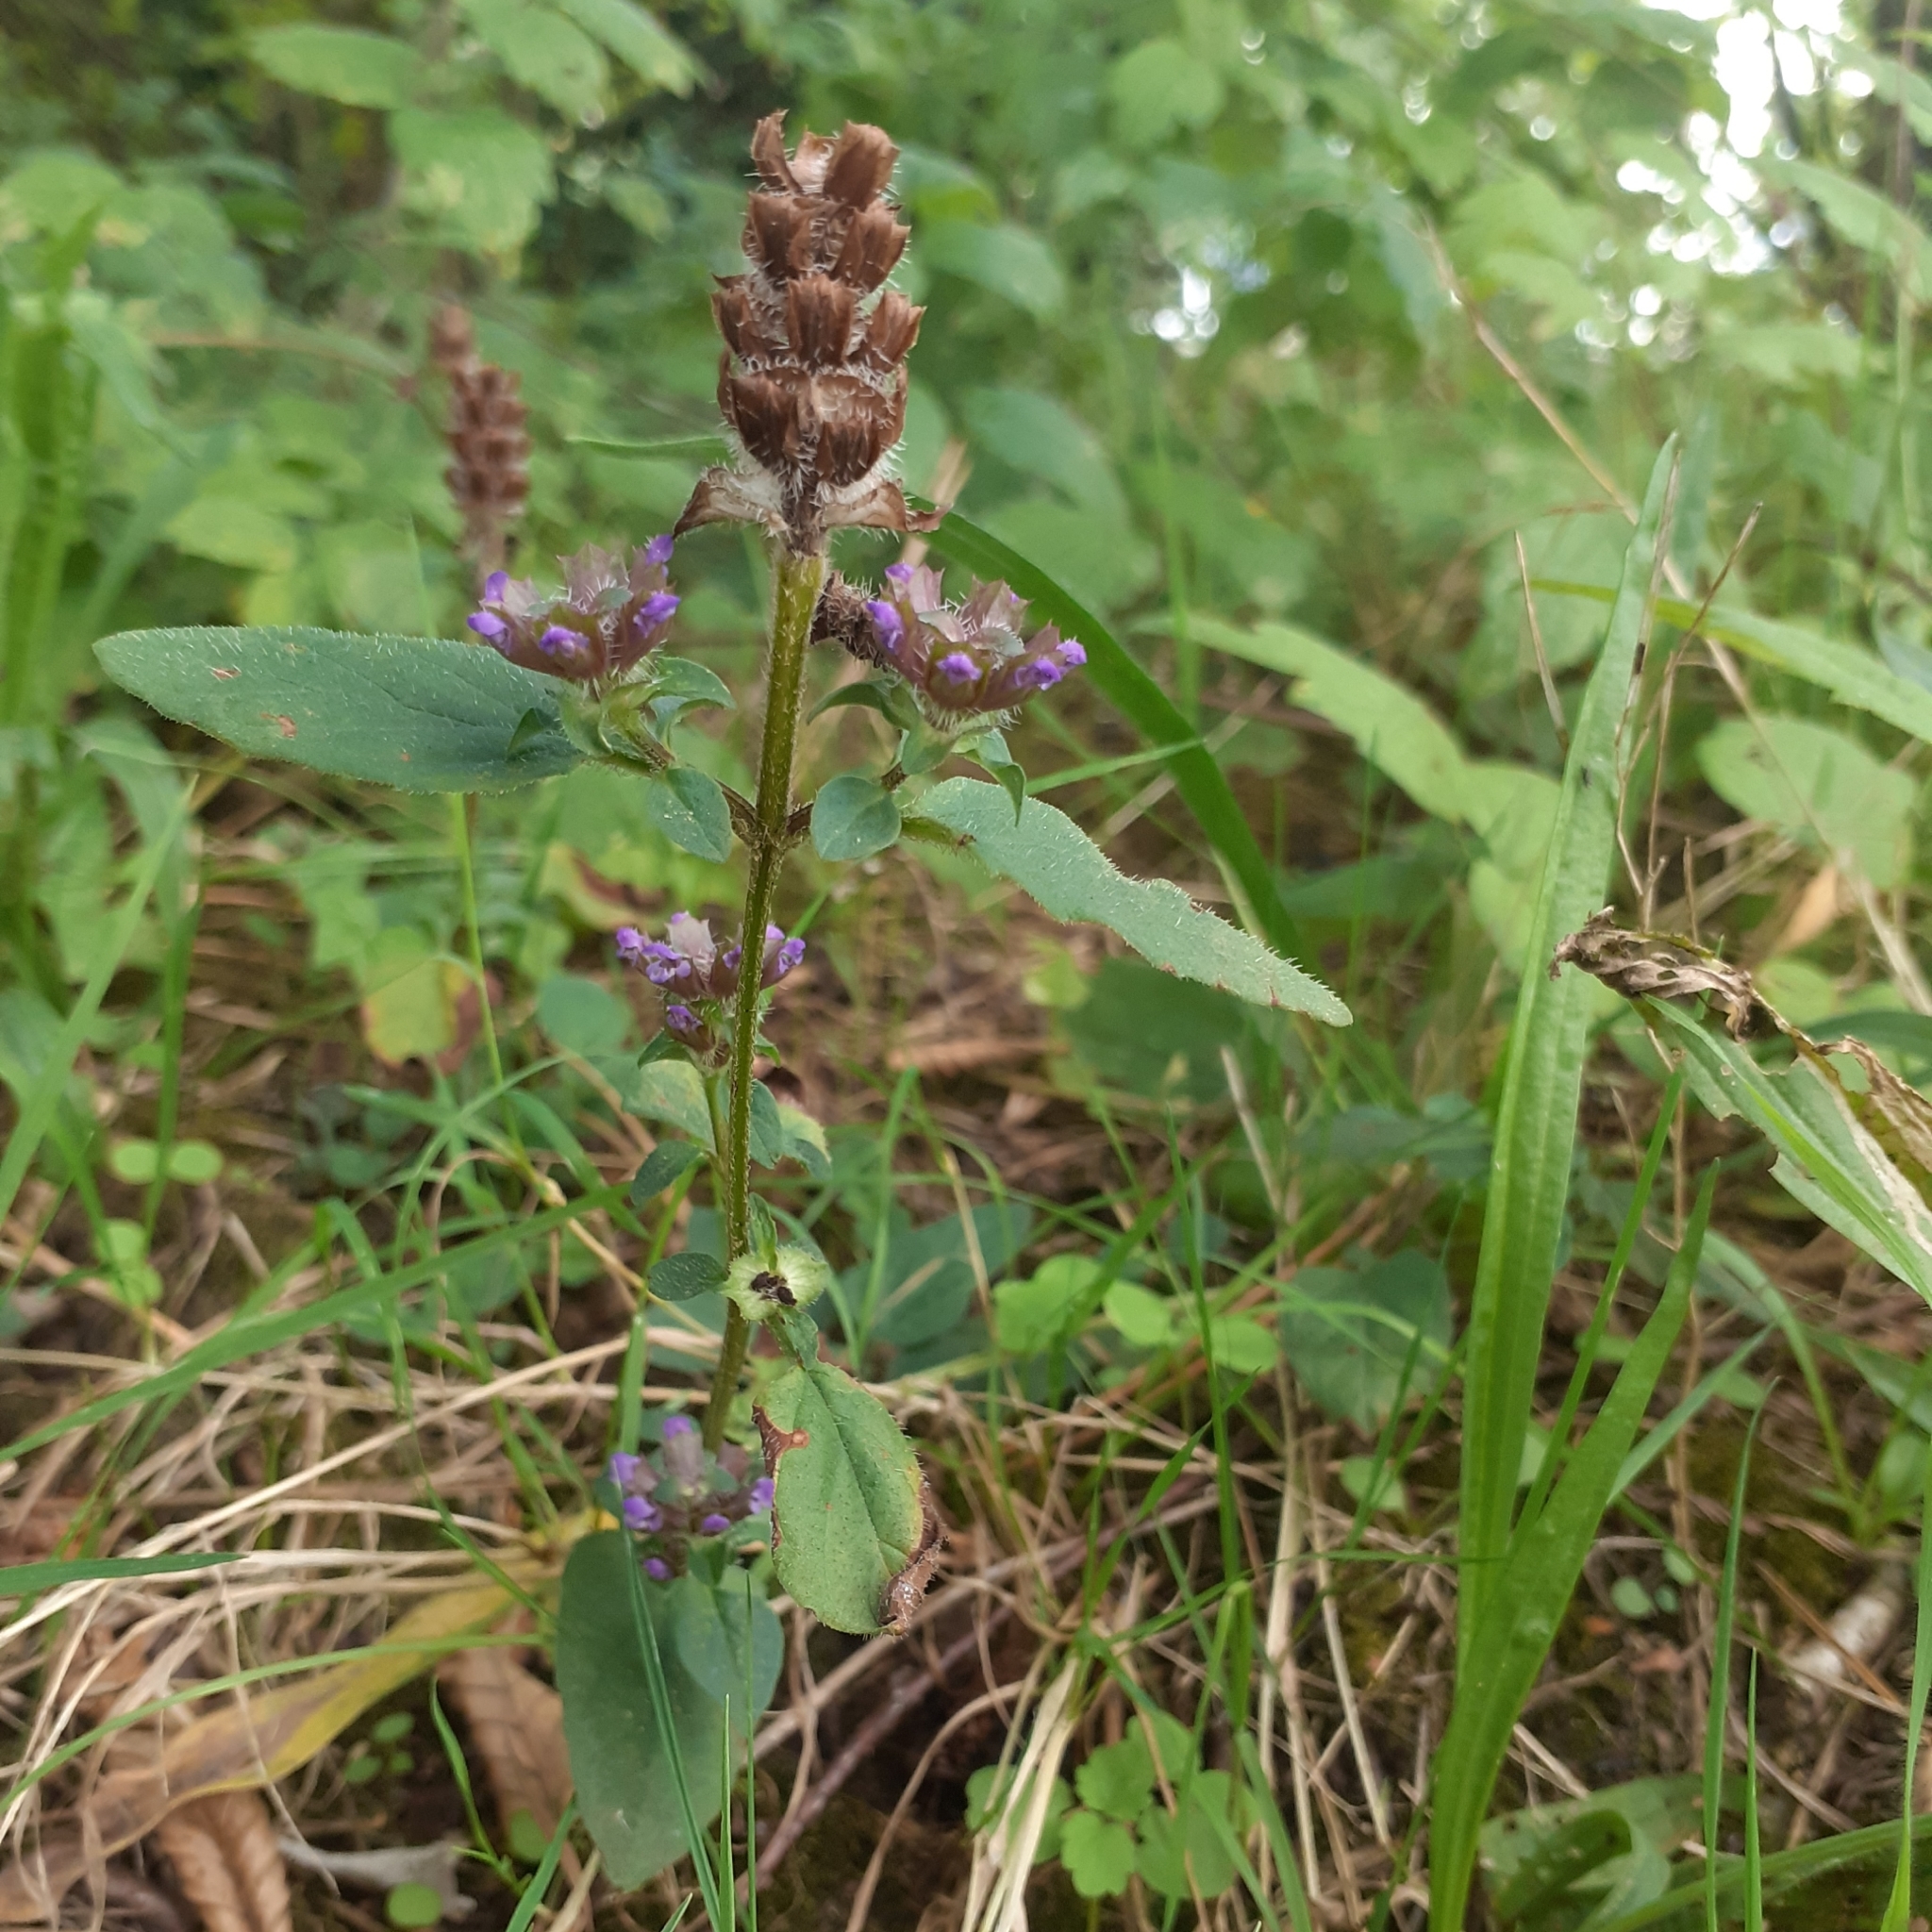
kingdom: Plantae
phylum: Tracheophyta
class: Magnoliopsida
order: Lamiales
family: Lamiaceae
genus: Prunella
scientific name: Prunella vulgaris
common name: Heal-all
